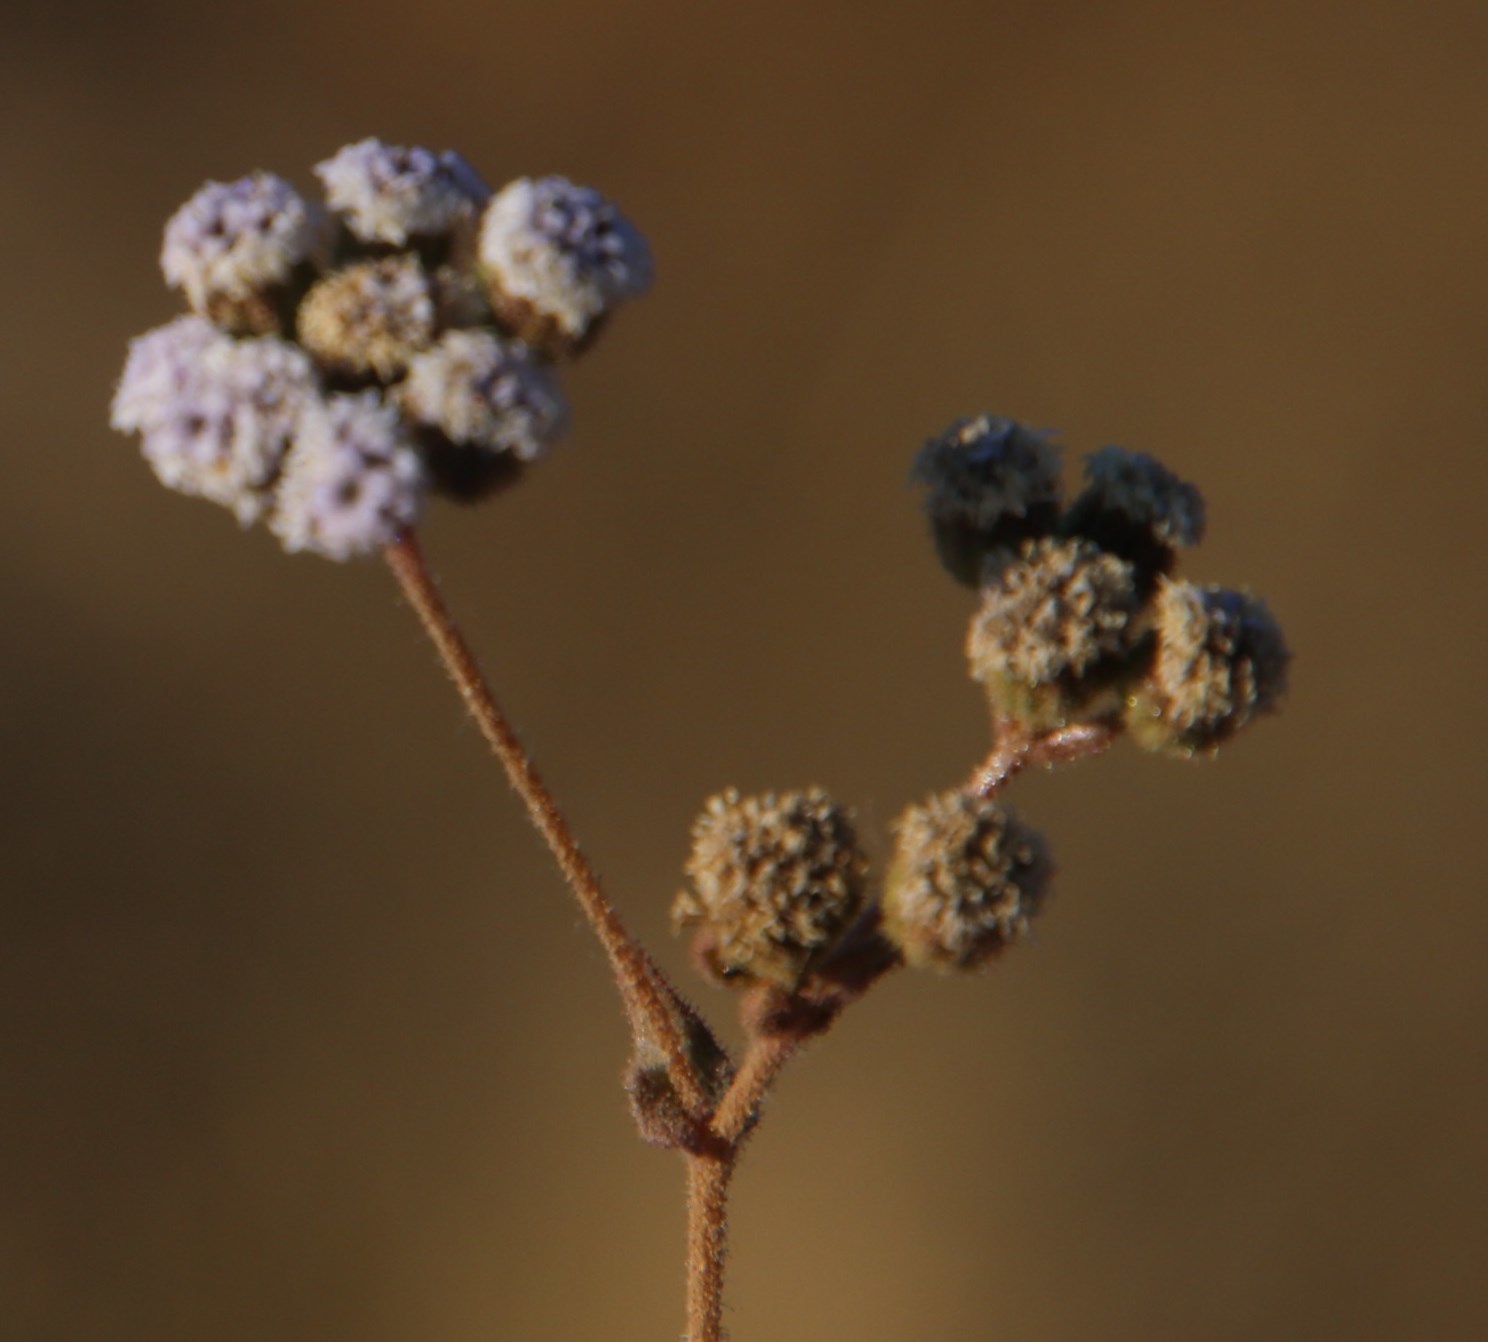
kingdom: Plantae
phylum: Tracheophyta
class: Magnoliopsida
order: Asterales
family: Asteraceae
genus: Denekia
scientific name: Denekia capensis
